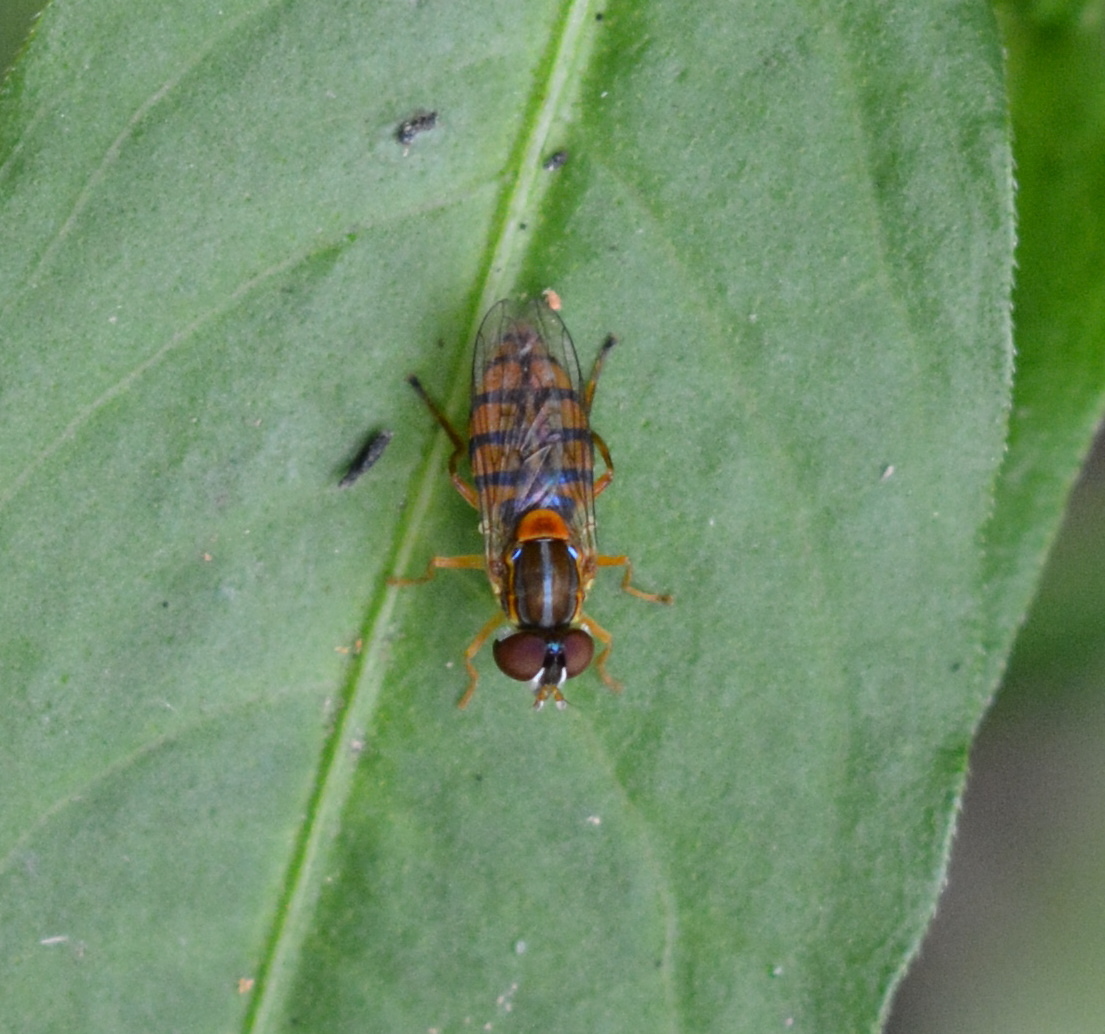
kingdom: Animalia
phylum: Arthropoda
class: Insecta
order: Diptera
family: Syrphidae
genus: Toxomerus
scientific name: Toxomerus jussiaeae
